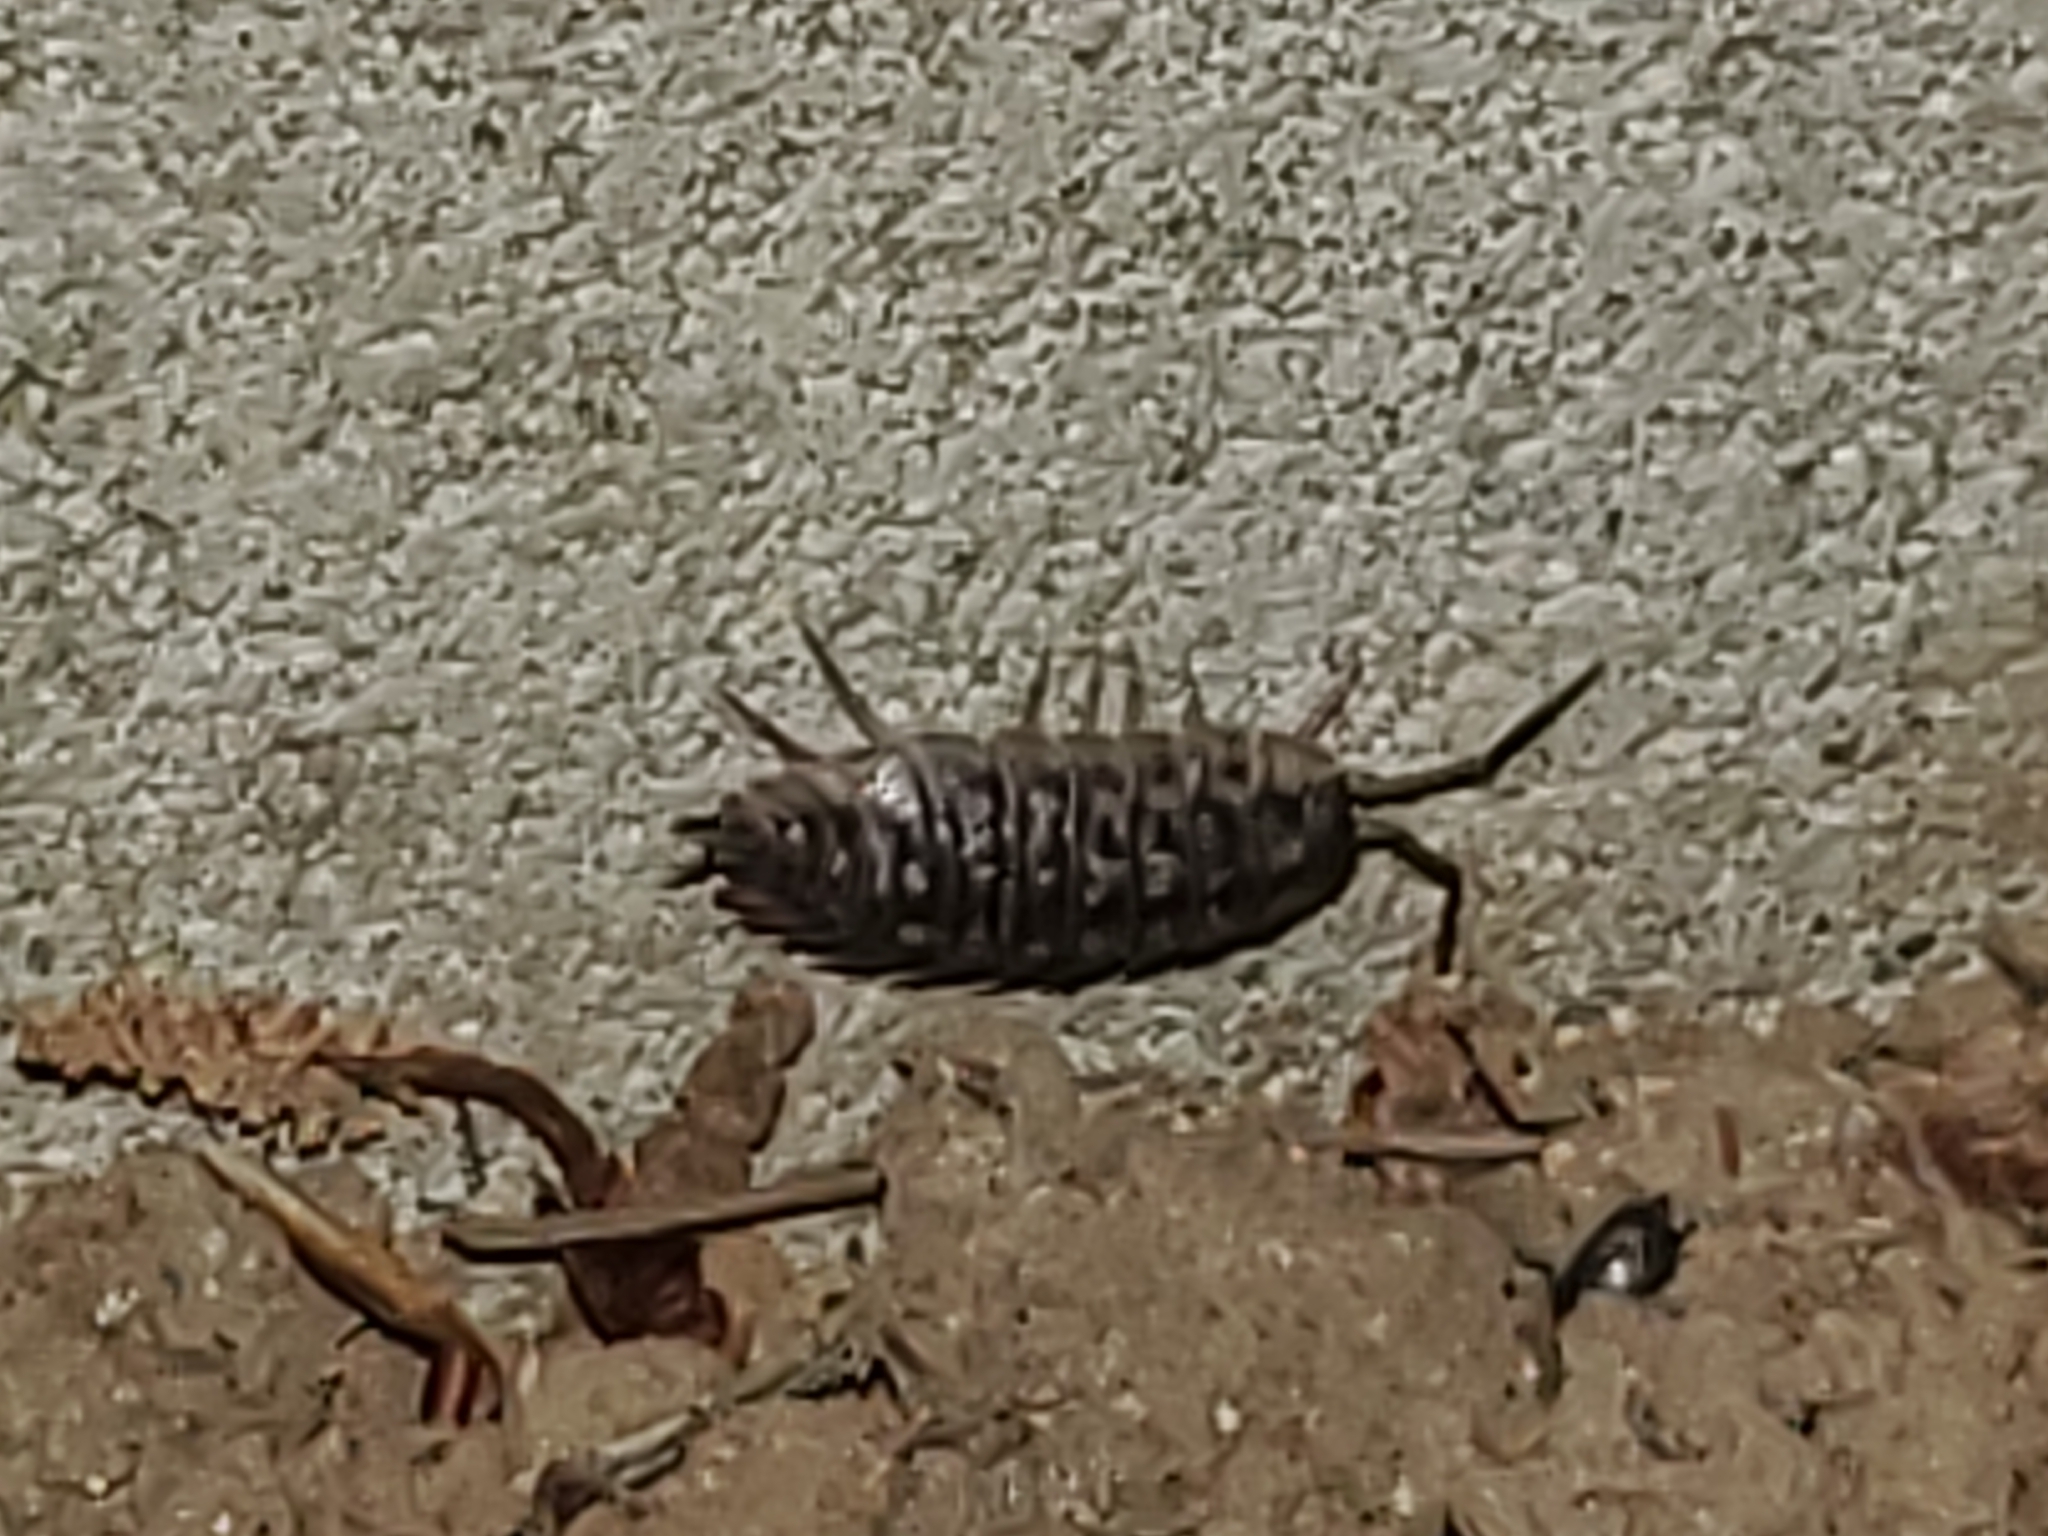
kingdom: Animalia
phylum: Arthropoda
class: Malacostraca
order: Isopoda
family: Oniscidae
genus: Oniscus
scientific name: Oniscus asellus
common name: Common shiny woodlouse
